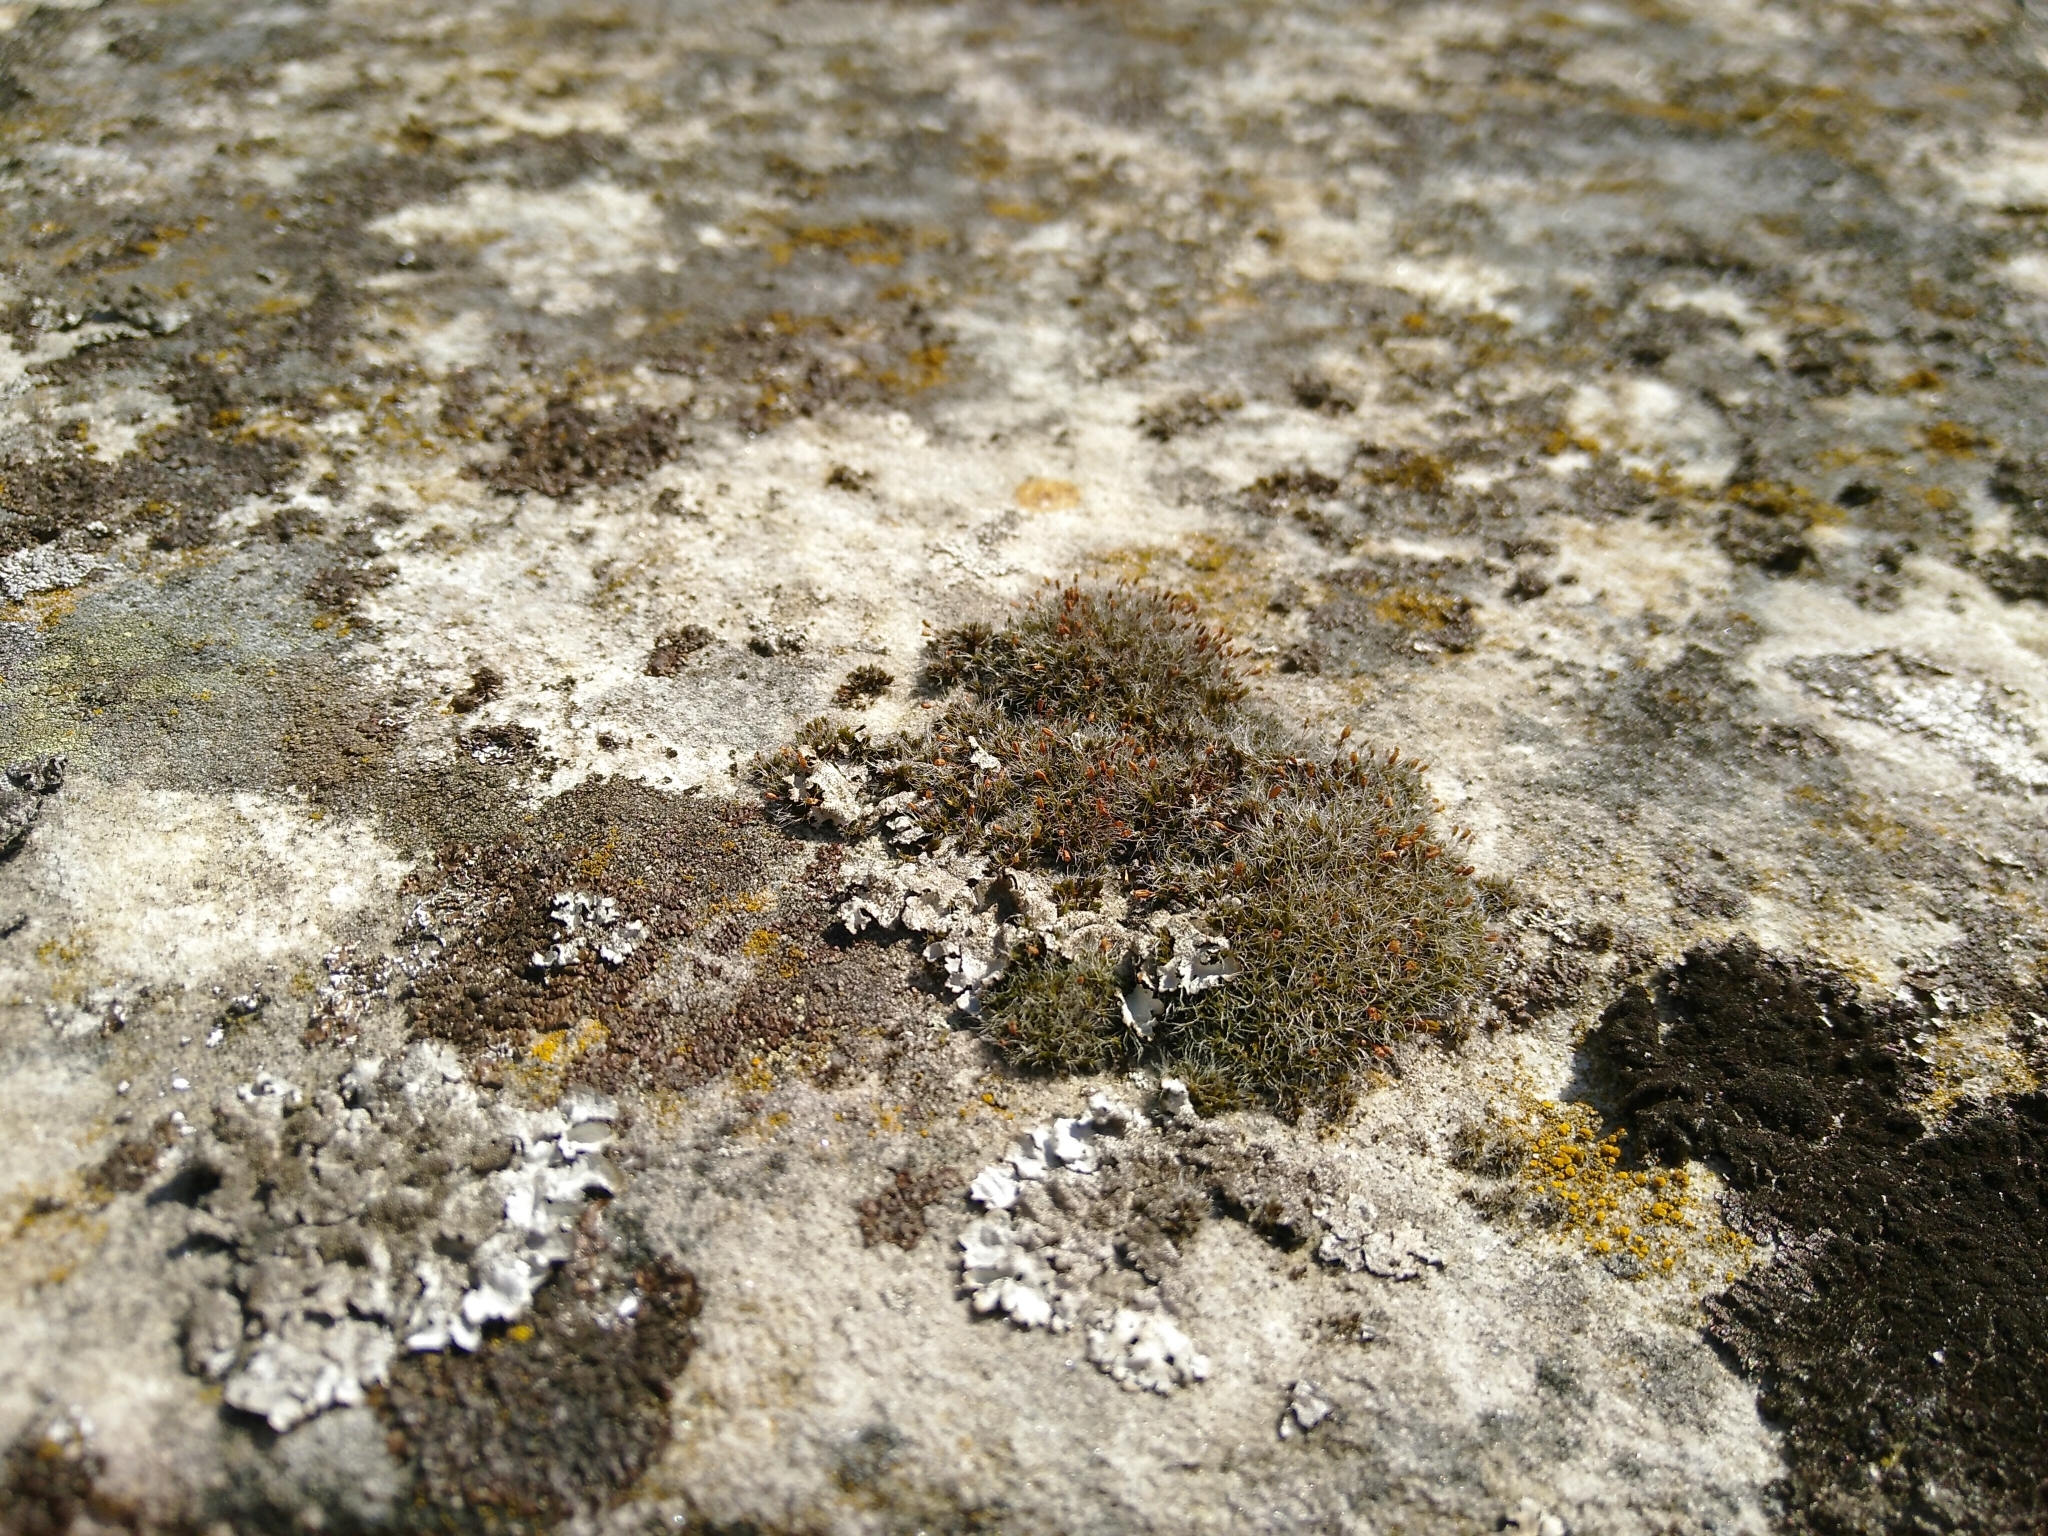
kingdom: Plantae
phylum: Bryophyta
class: Bryopsida
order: Grimmiales
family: Grimmiaceae
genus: Grimmia
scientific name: Grimmia pulvinata
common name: Grey-cushioned grimmia
